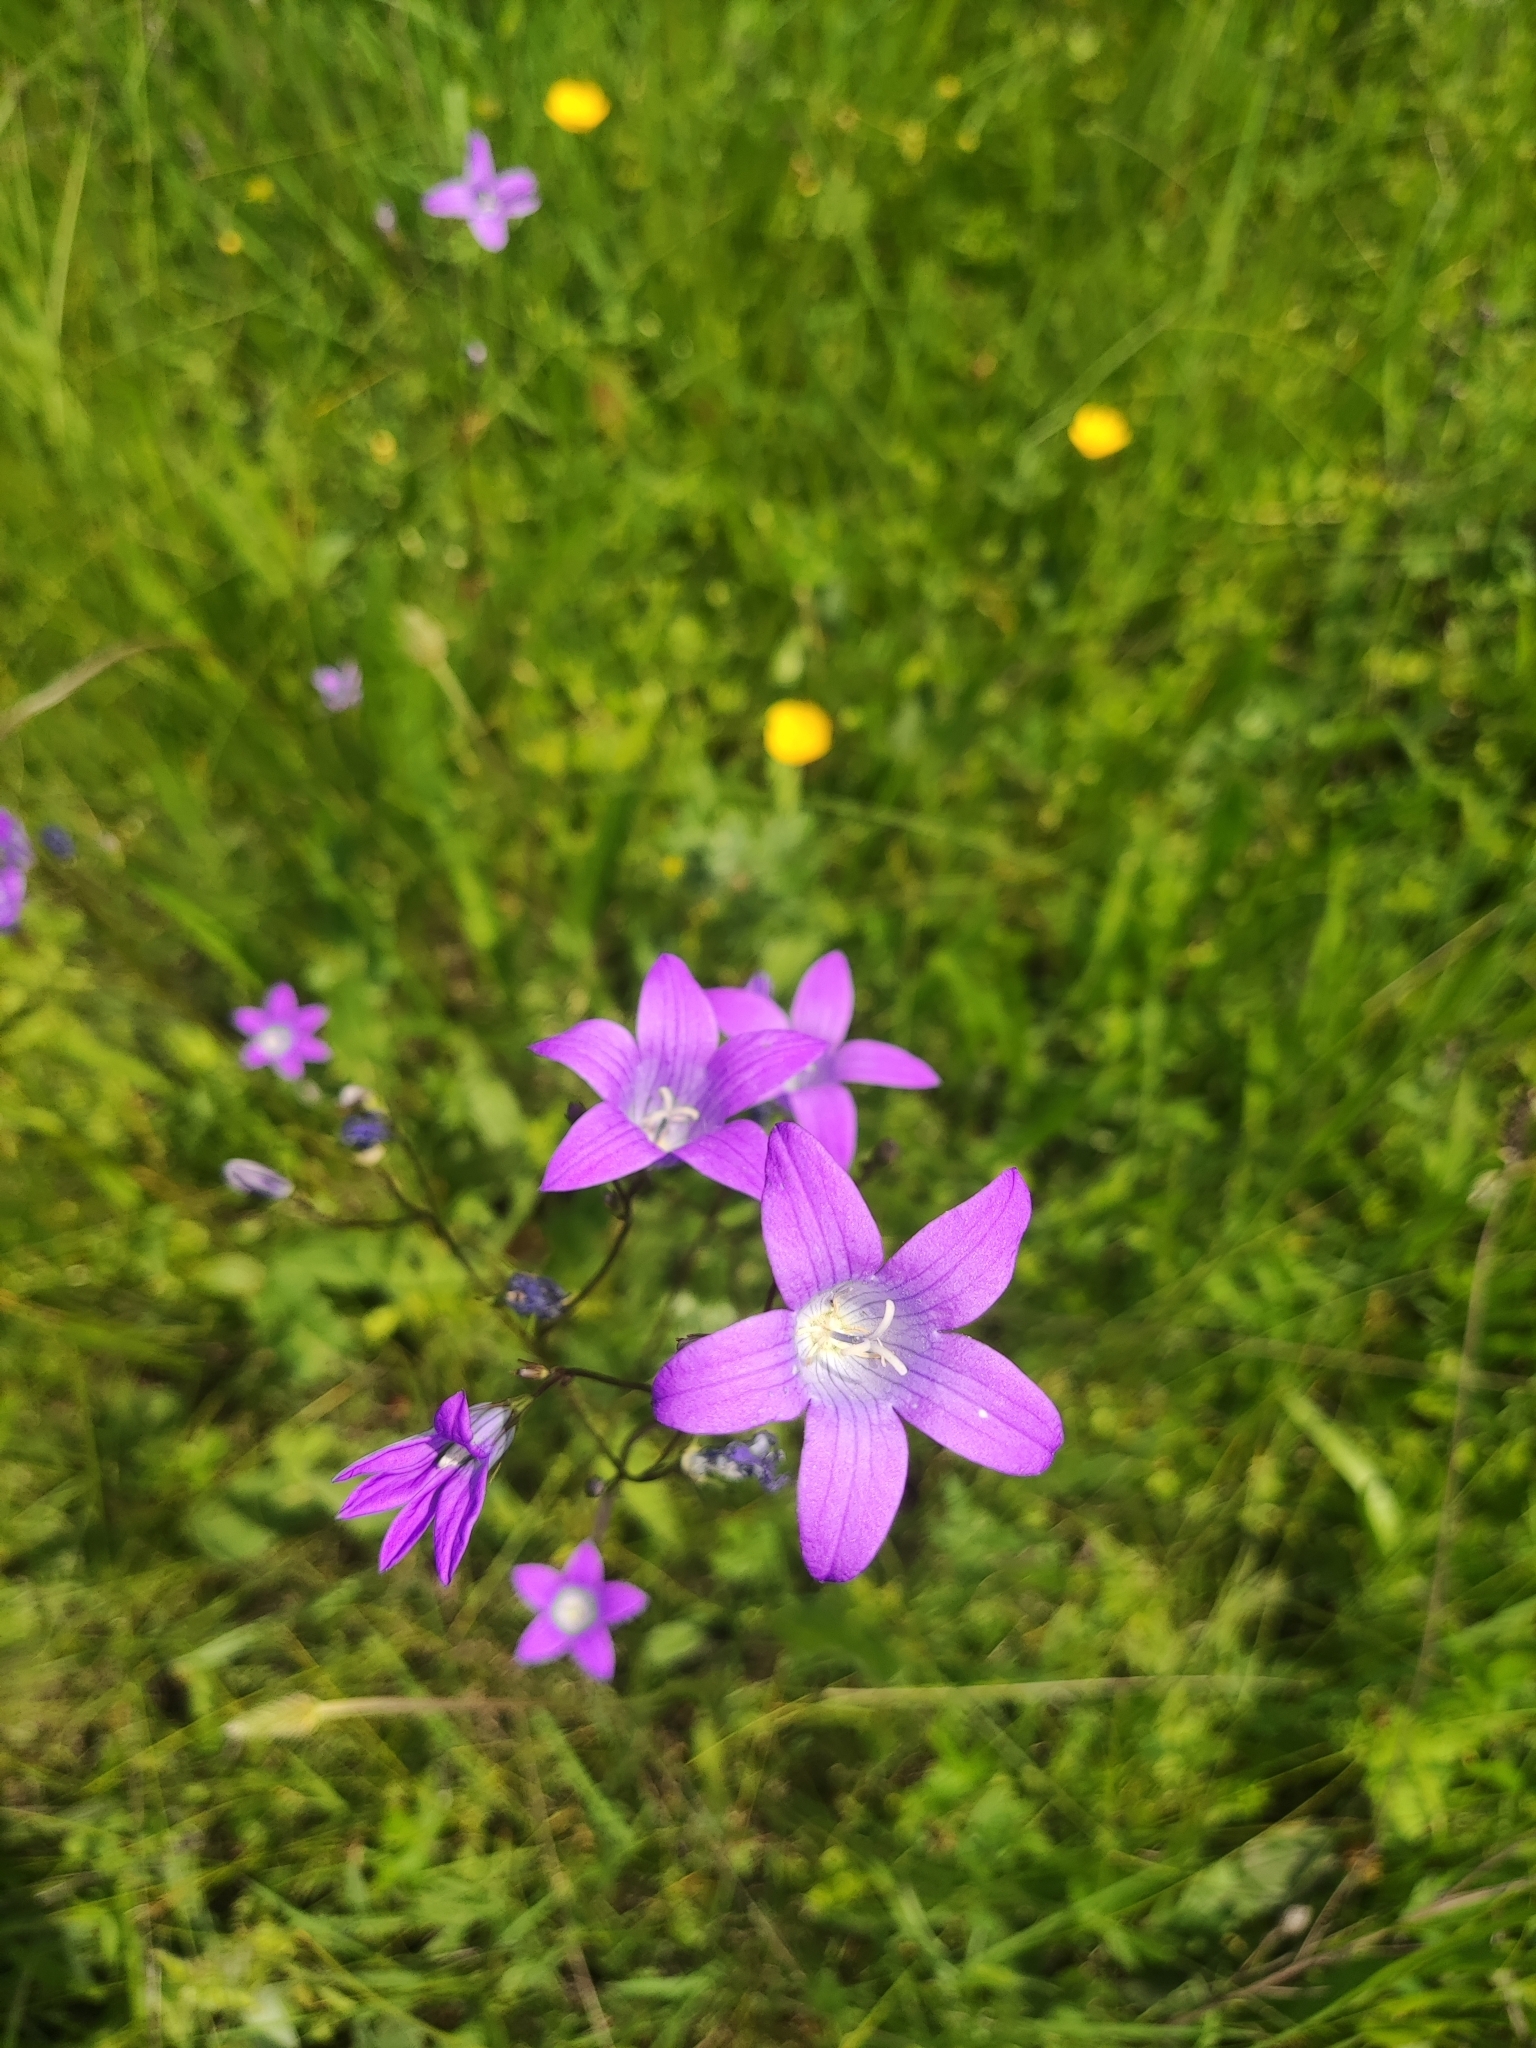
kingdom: Plantae
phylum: Tracheophyta
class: Magnoliopsida
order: Asterales
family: Campanulaceae
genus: Campanula
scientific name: Campanula patula
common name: Spreading bellflower
